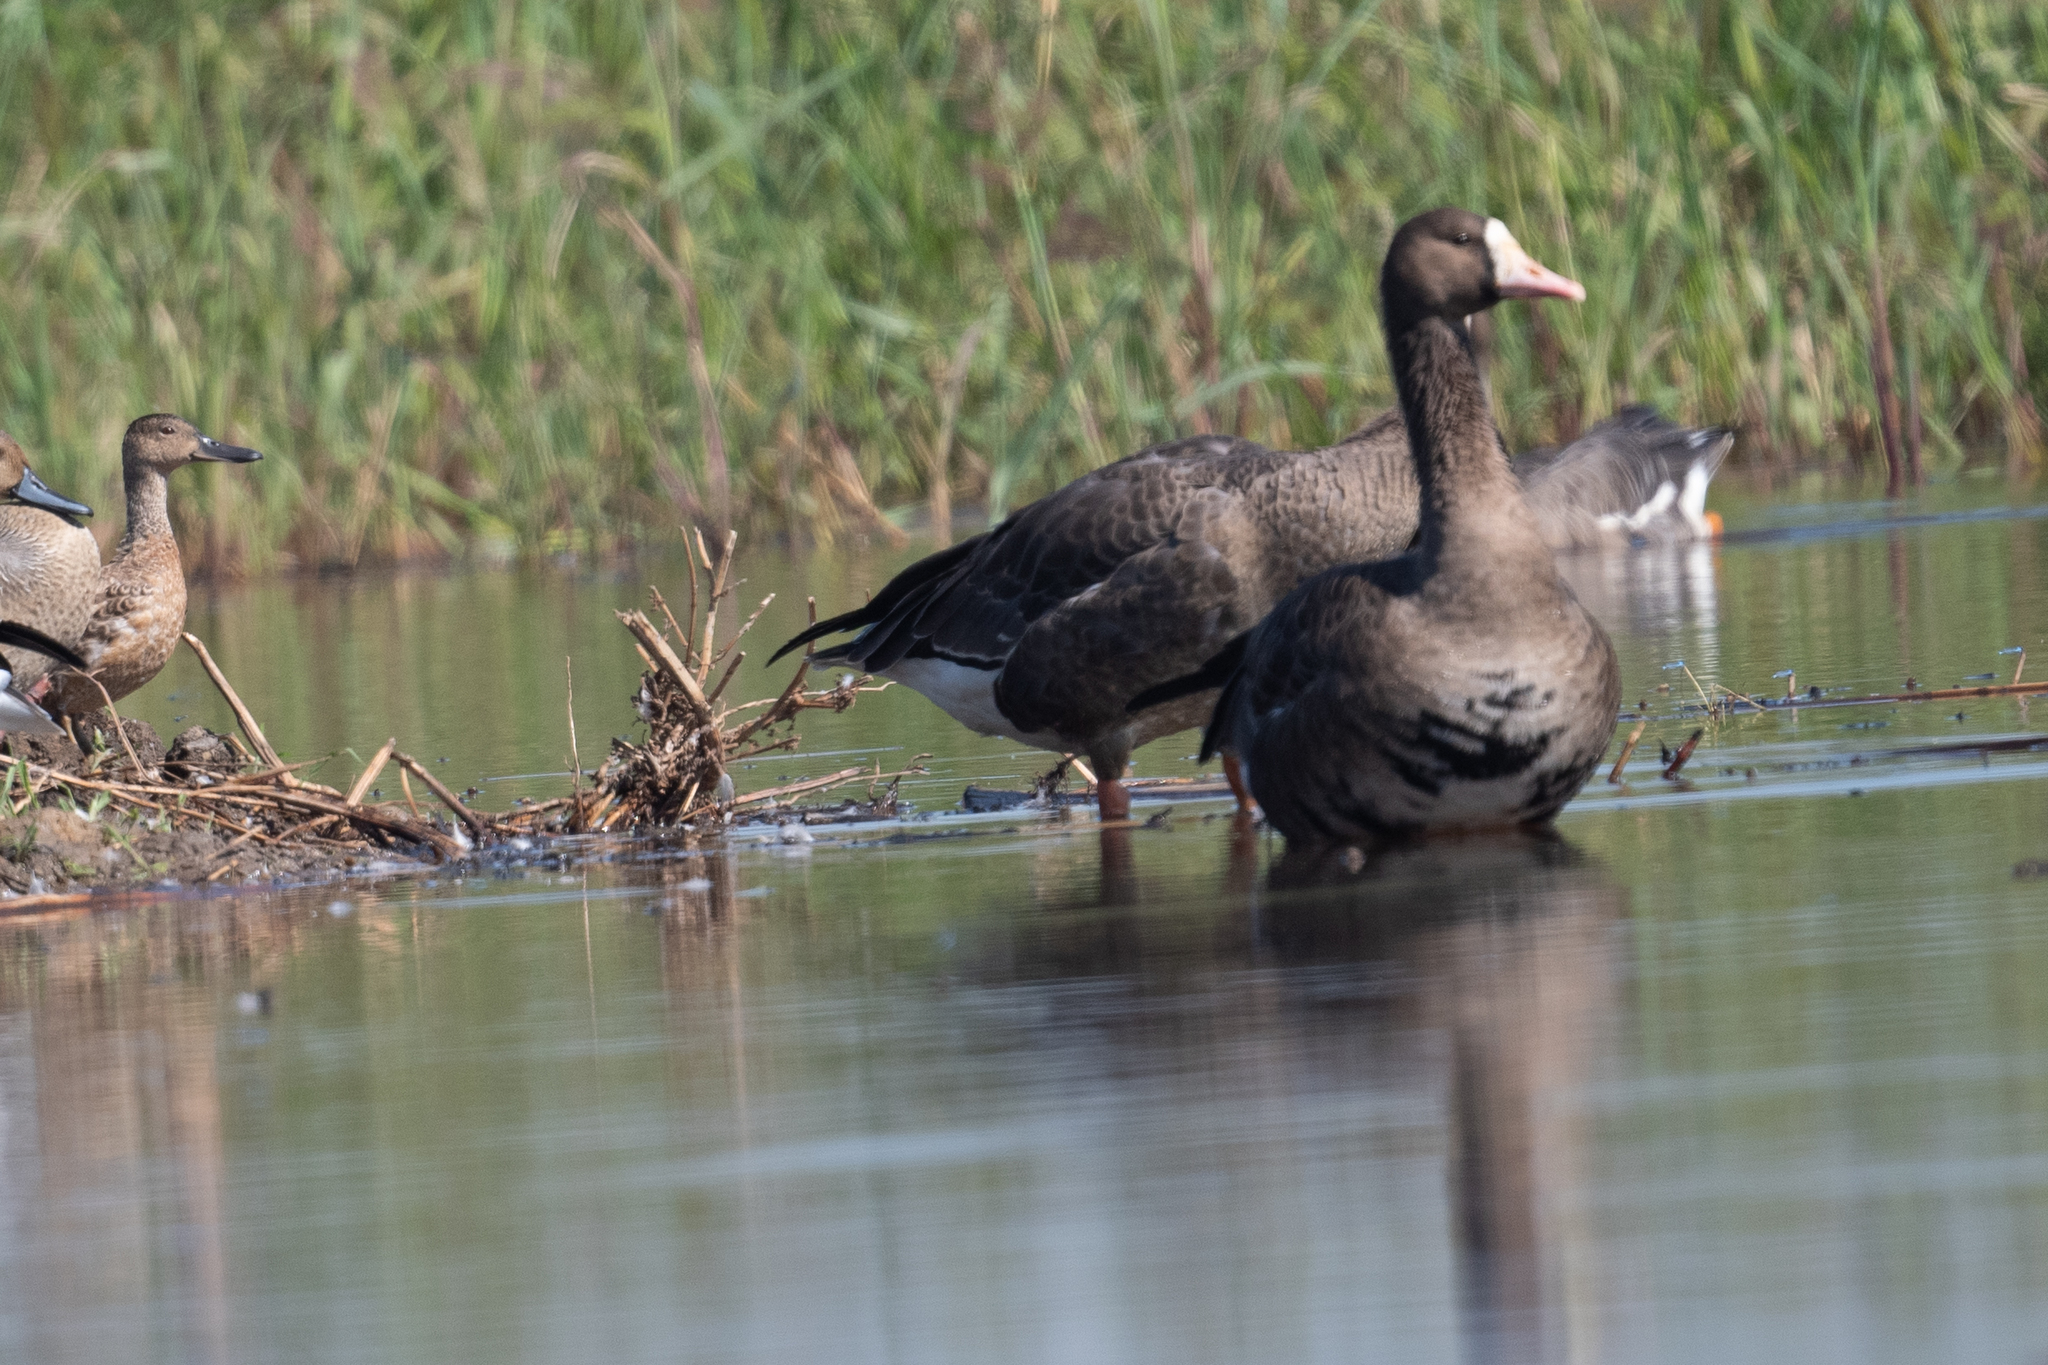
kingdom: Animalia
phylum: Chordata
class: Aves
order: Anseriformes
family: Anatidae
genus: Anser
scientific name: Anser albifrons
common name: Greater white-fronted goose
